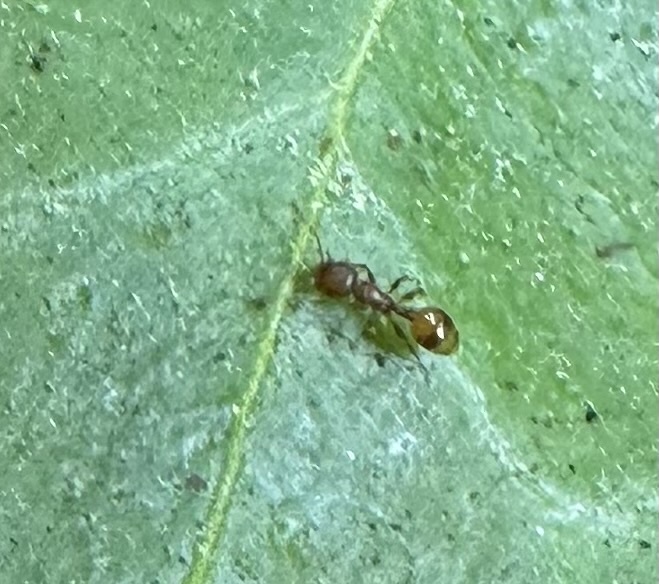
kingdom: Animalia
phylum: Arthropoda
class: Insecta
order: Hymenoptera
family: Formicidae
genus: Temnothorax
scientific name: Temnothorax curvispinosus
